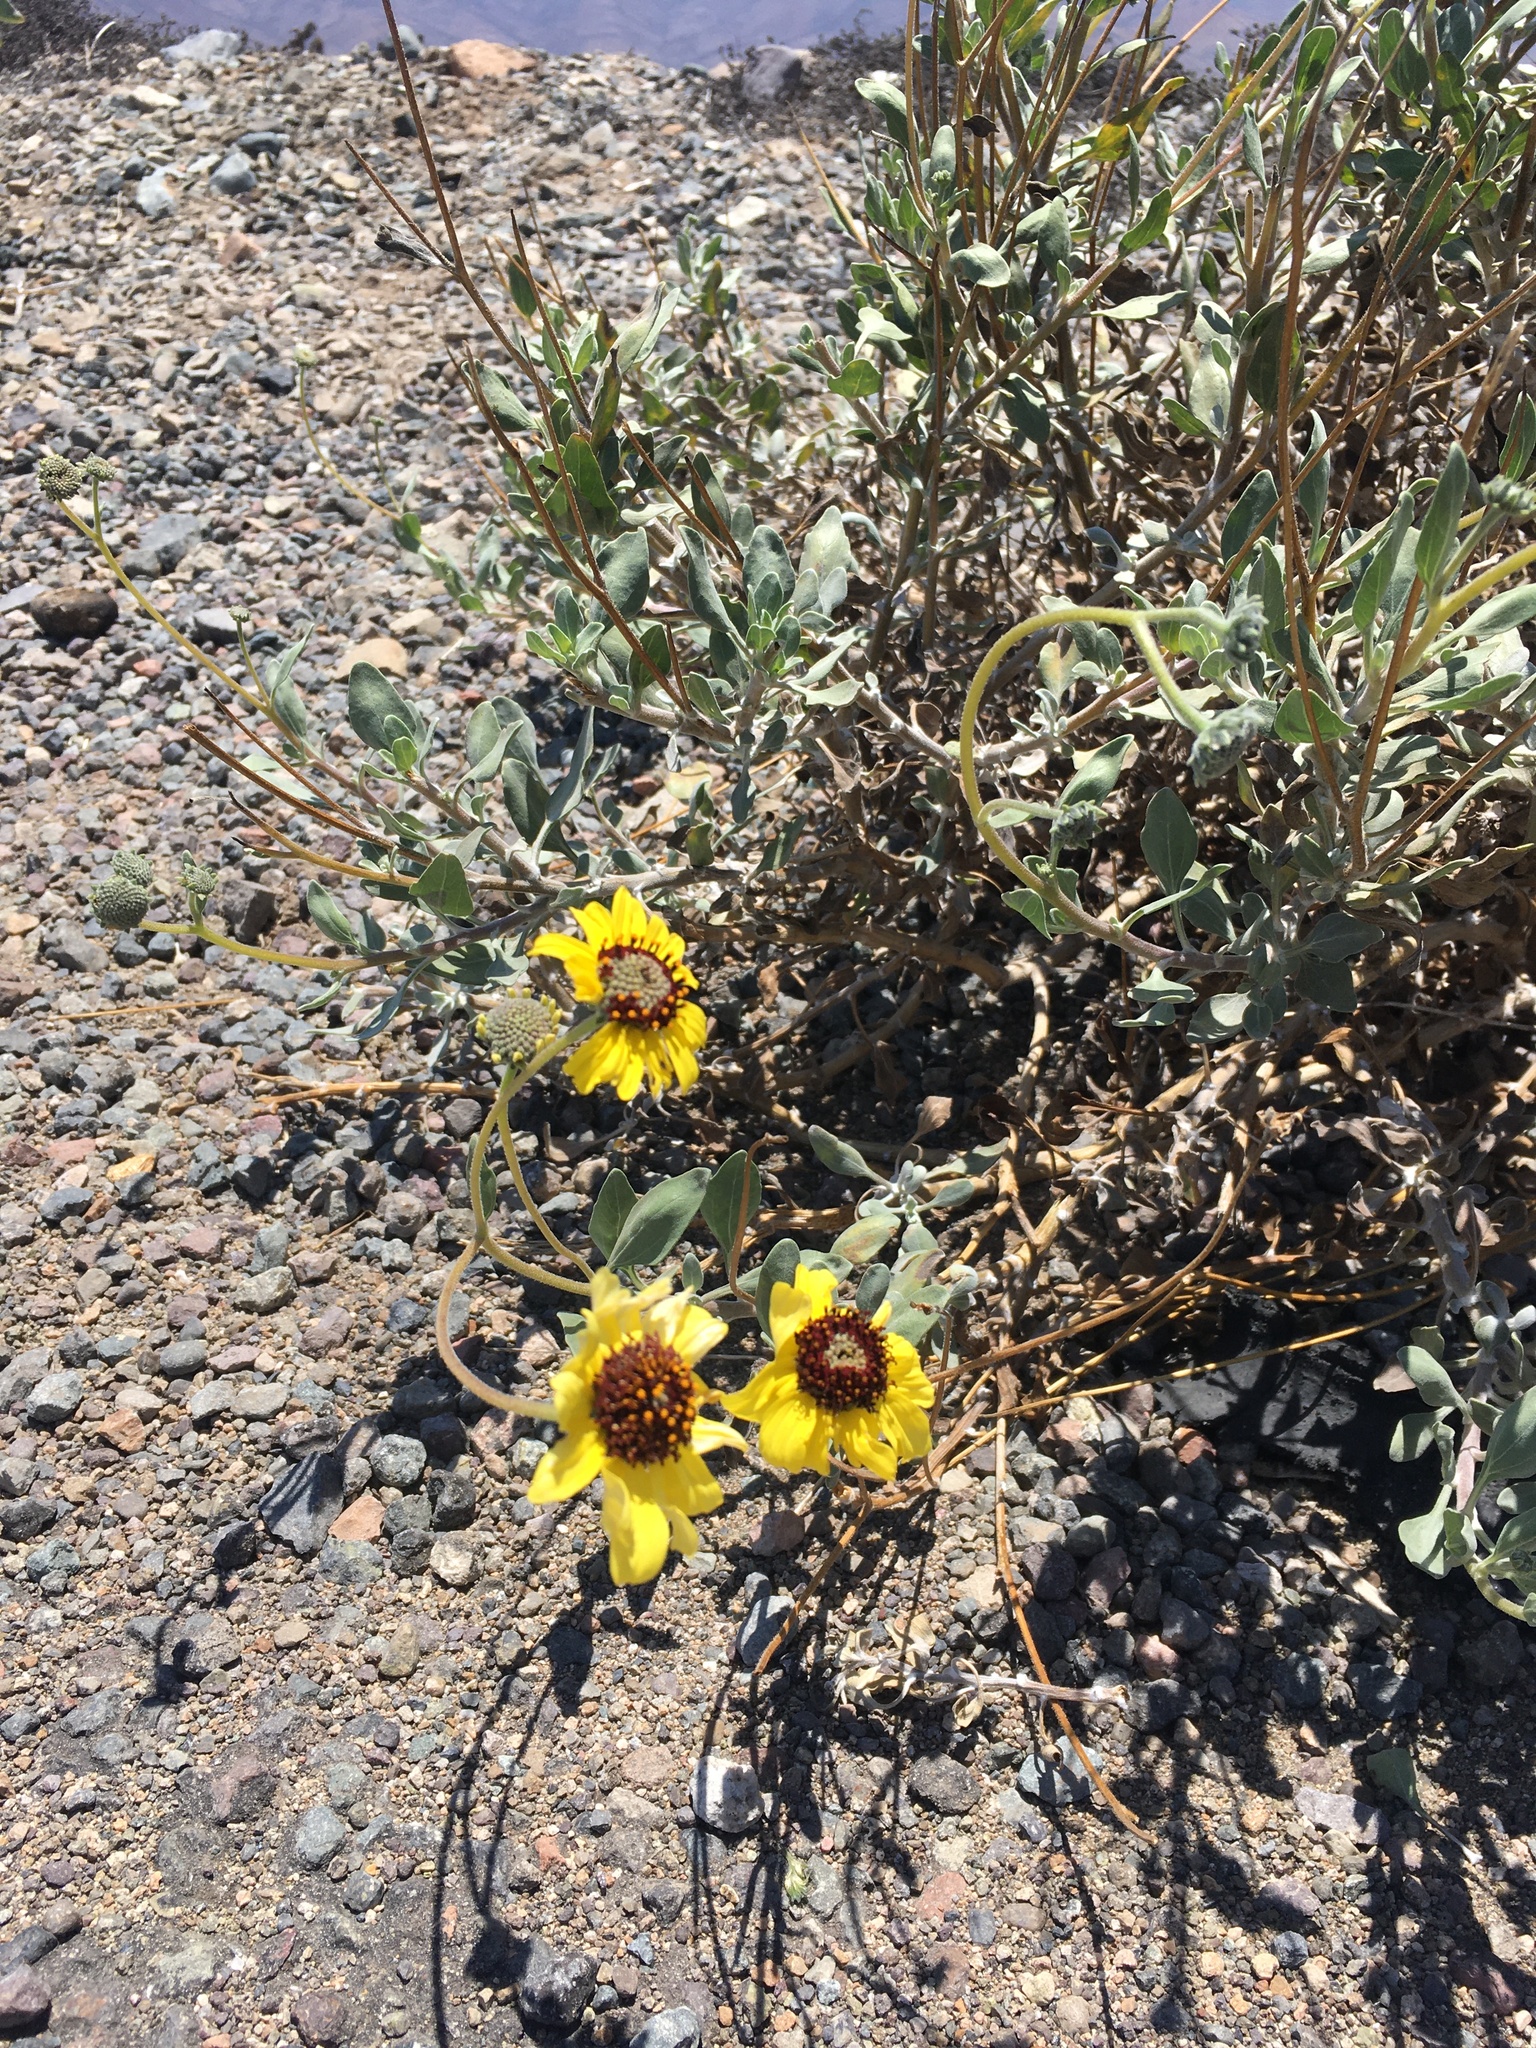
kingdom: Plantae
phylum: Tracheophyta
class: Magnoliopsida
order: Asterales
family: Asteraceae
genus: Encelia
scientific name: Encelia canescens
